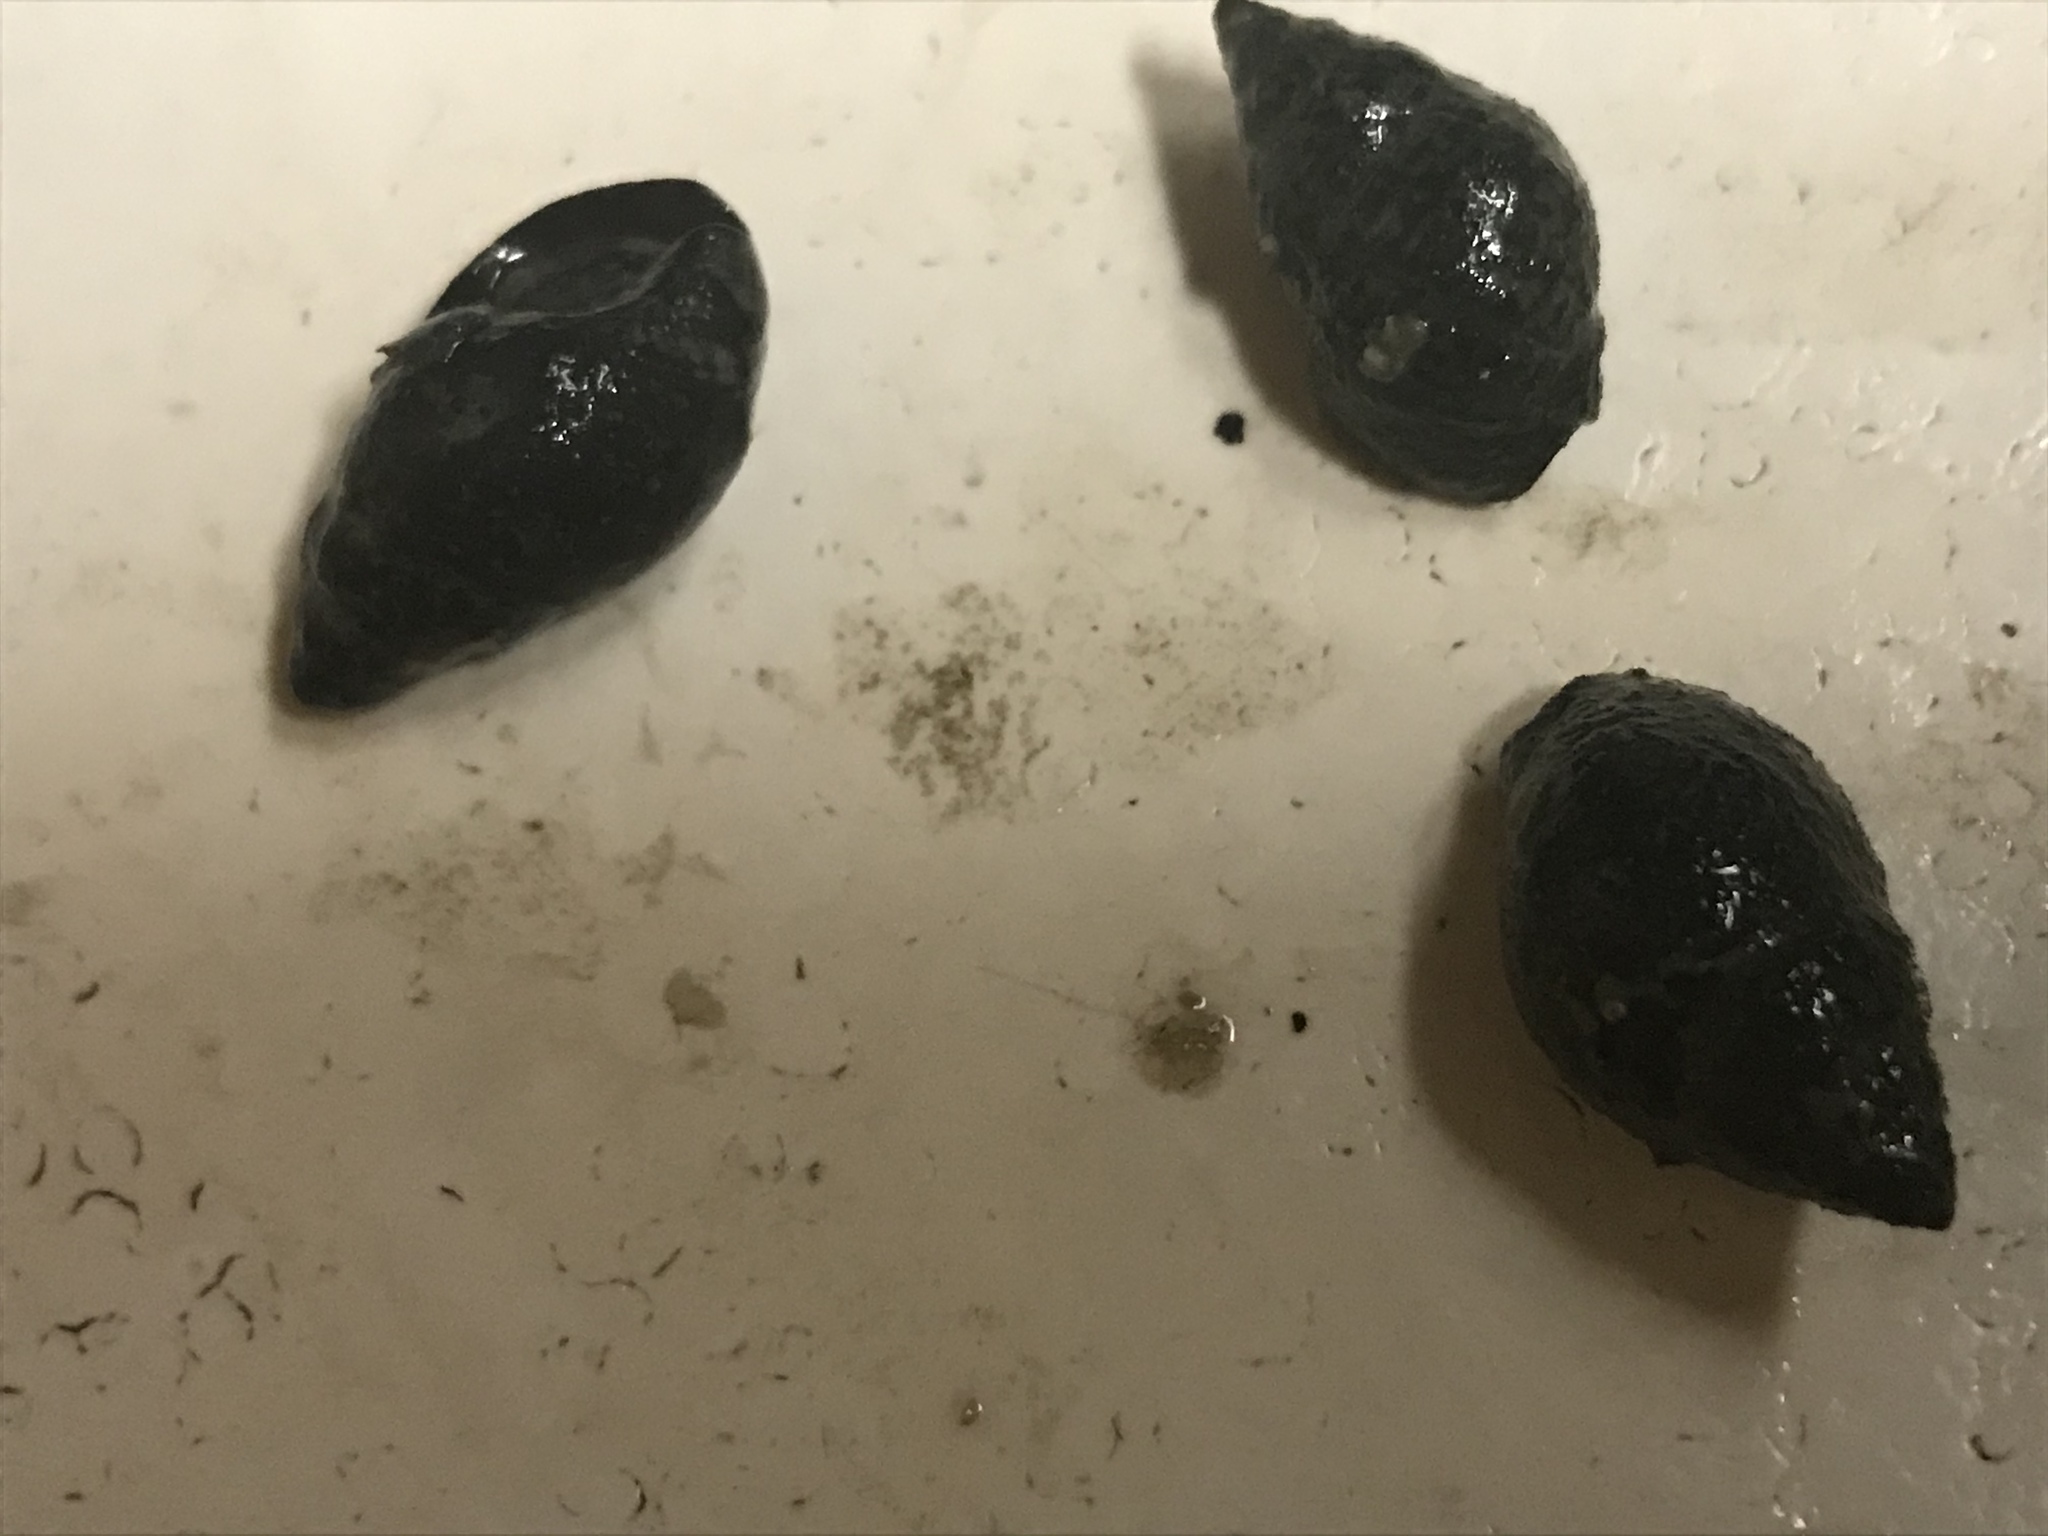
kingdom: Animalia
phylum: Mollusca
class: Gastropoda
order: Neogastropoda
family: Nassariidae
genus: Ilyanassa
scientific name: Ilyanassa obsoleta
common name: Eastern mudsnail
